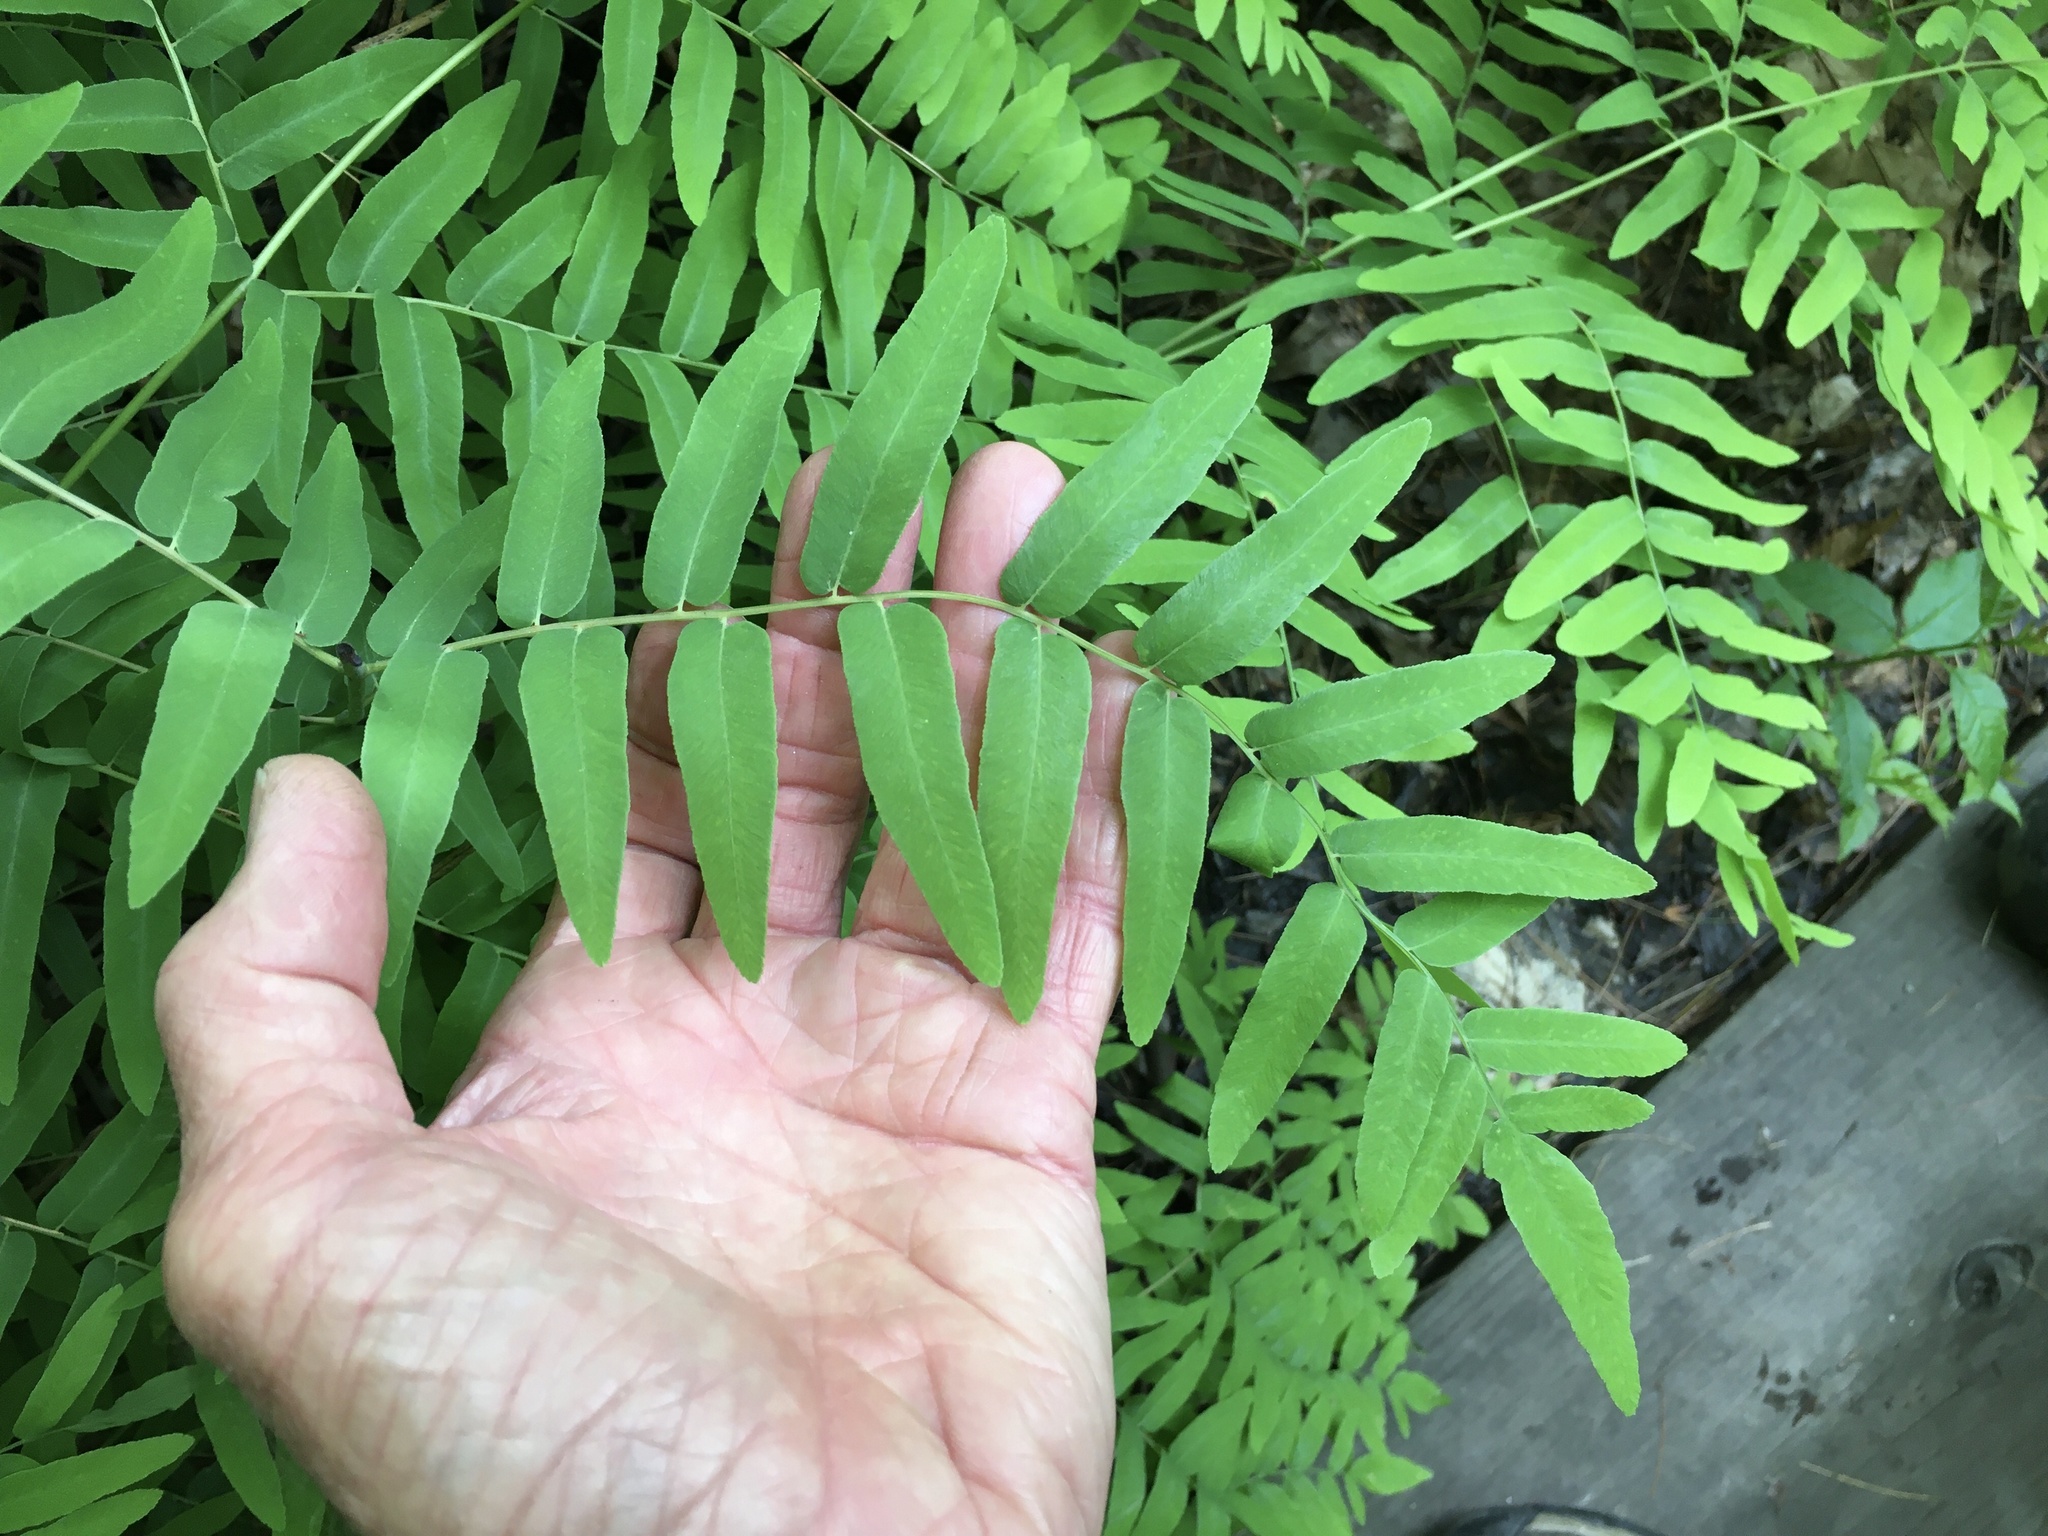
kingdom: Plantae
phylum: Tracheophyta
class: Polypodiopsida
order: Osmundales
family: Osmundaceae
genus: Osmunda
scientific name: Osmunda spectabilis
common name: American royal fern
